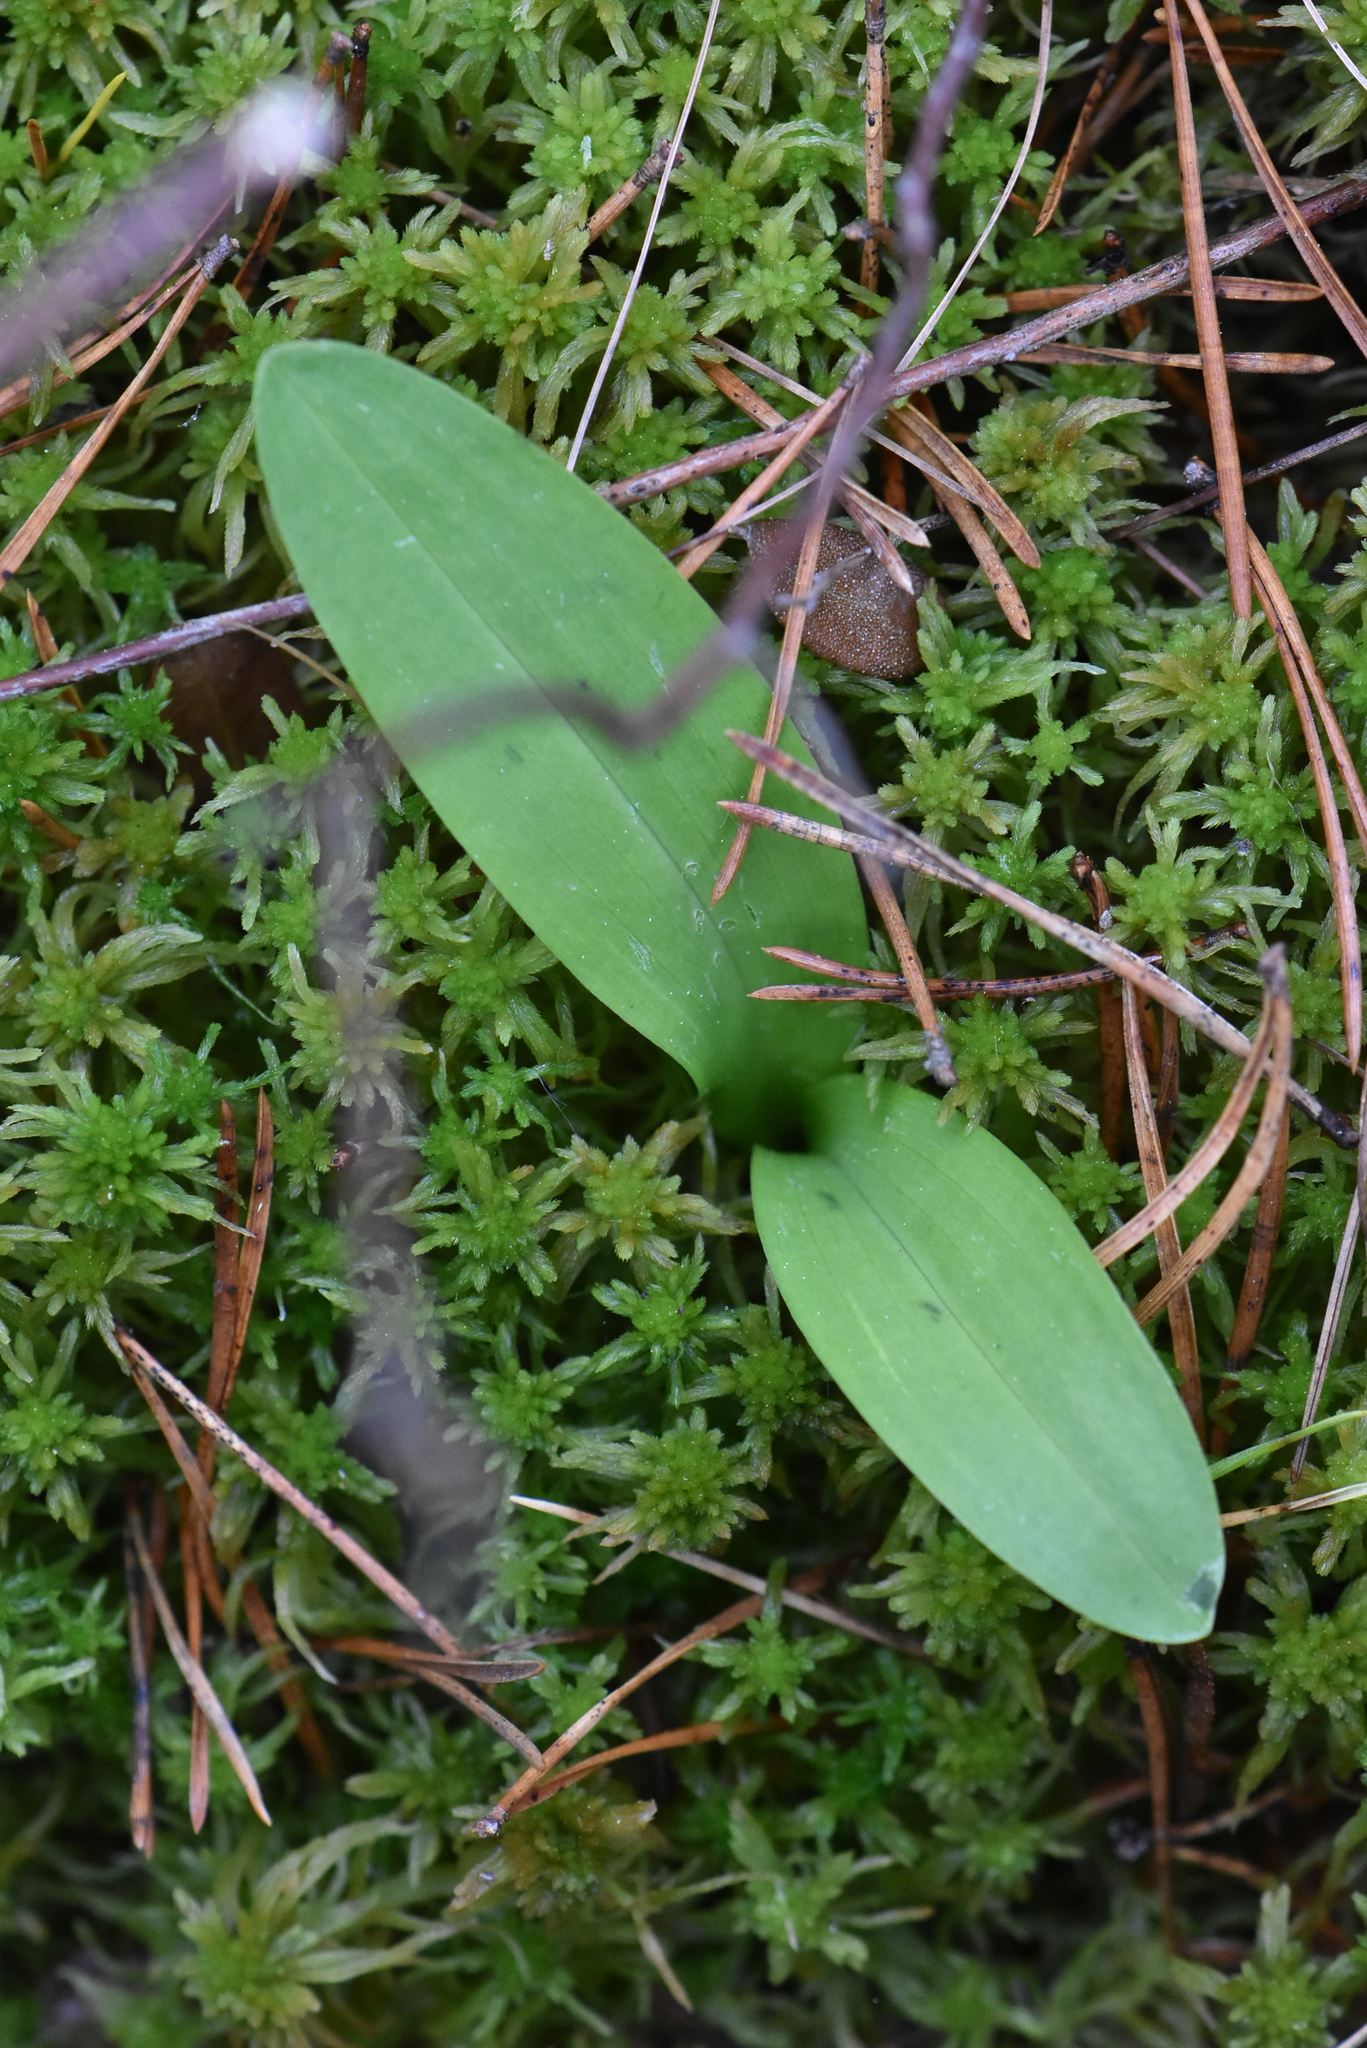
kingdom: Plantae
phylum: Tracheophyta
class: Liliopsida
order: Asparagales
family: Orchidaceae
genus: Platanthera
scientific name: Platanthera bifolia
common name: Lesser butterfly-orchid
